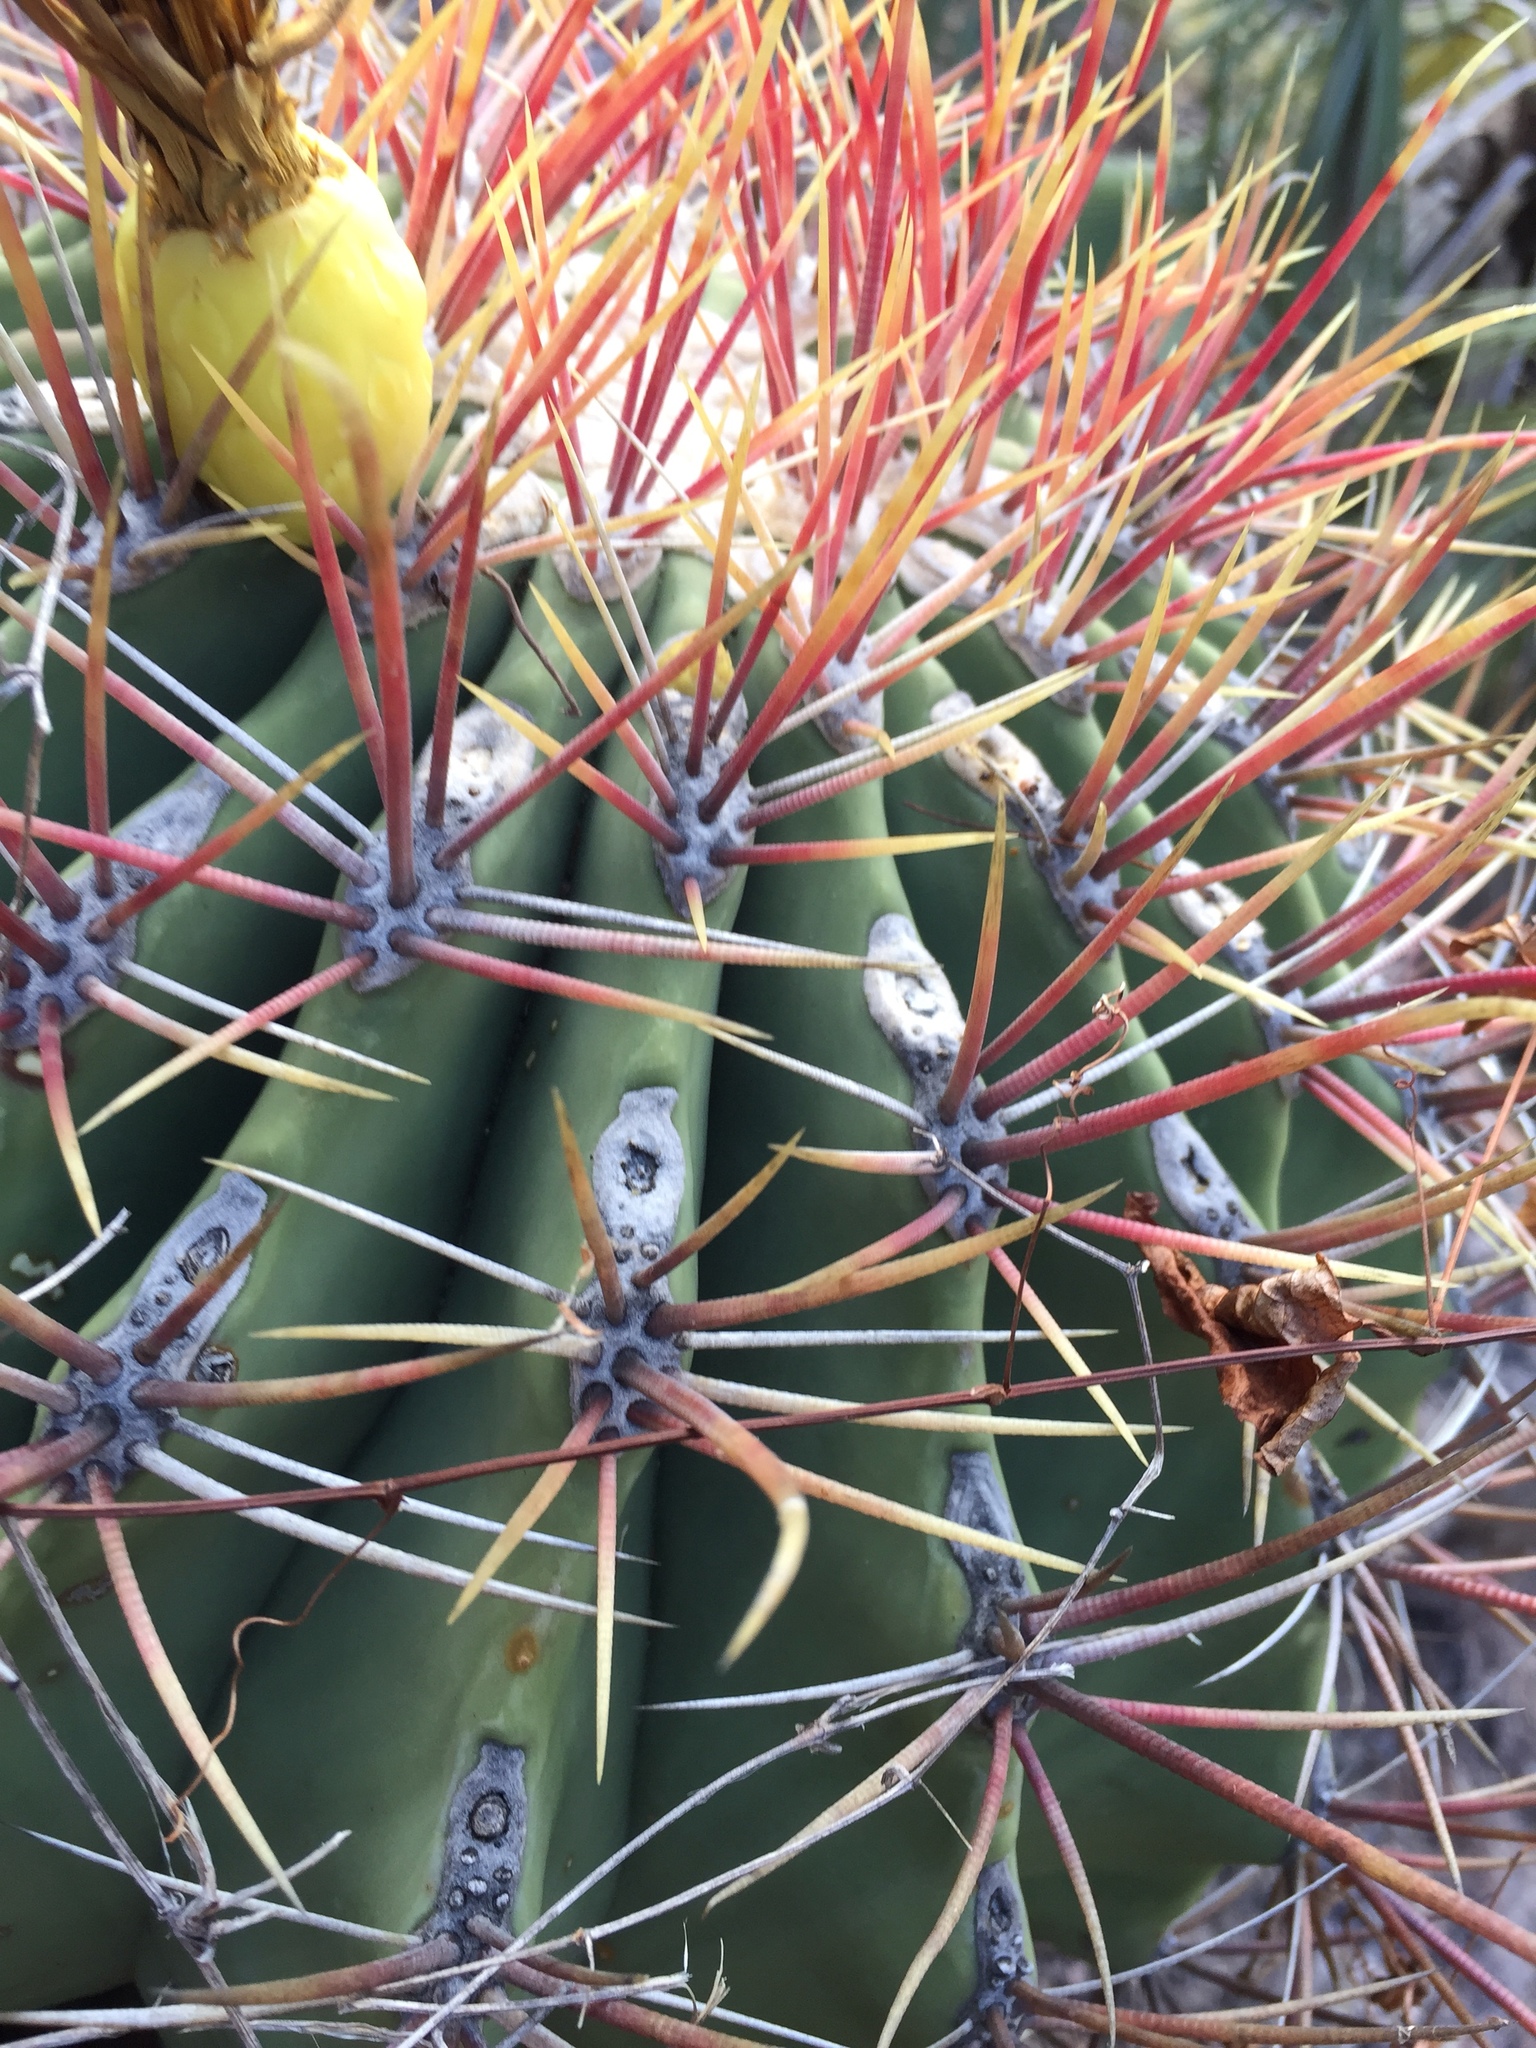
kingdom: Plantae
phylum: Tracheophyta
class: Magnoliopsida
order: Caryophyllales
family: Cactaceae
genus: Ferocactus
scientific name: Ferocactus emoryi
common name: Emory's barrel cactus
